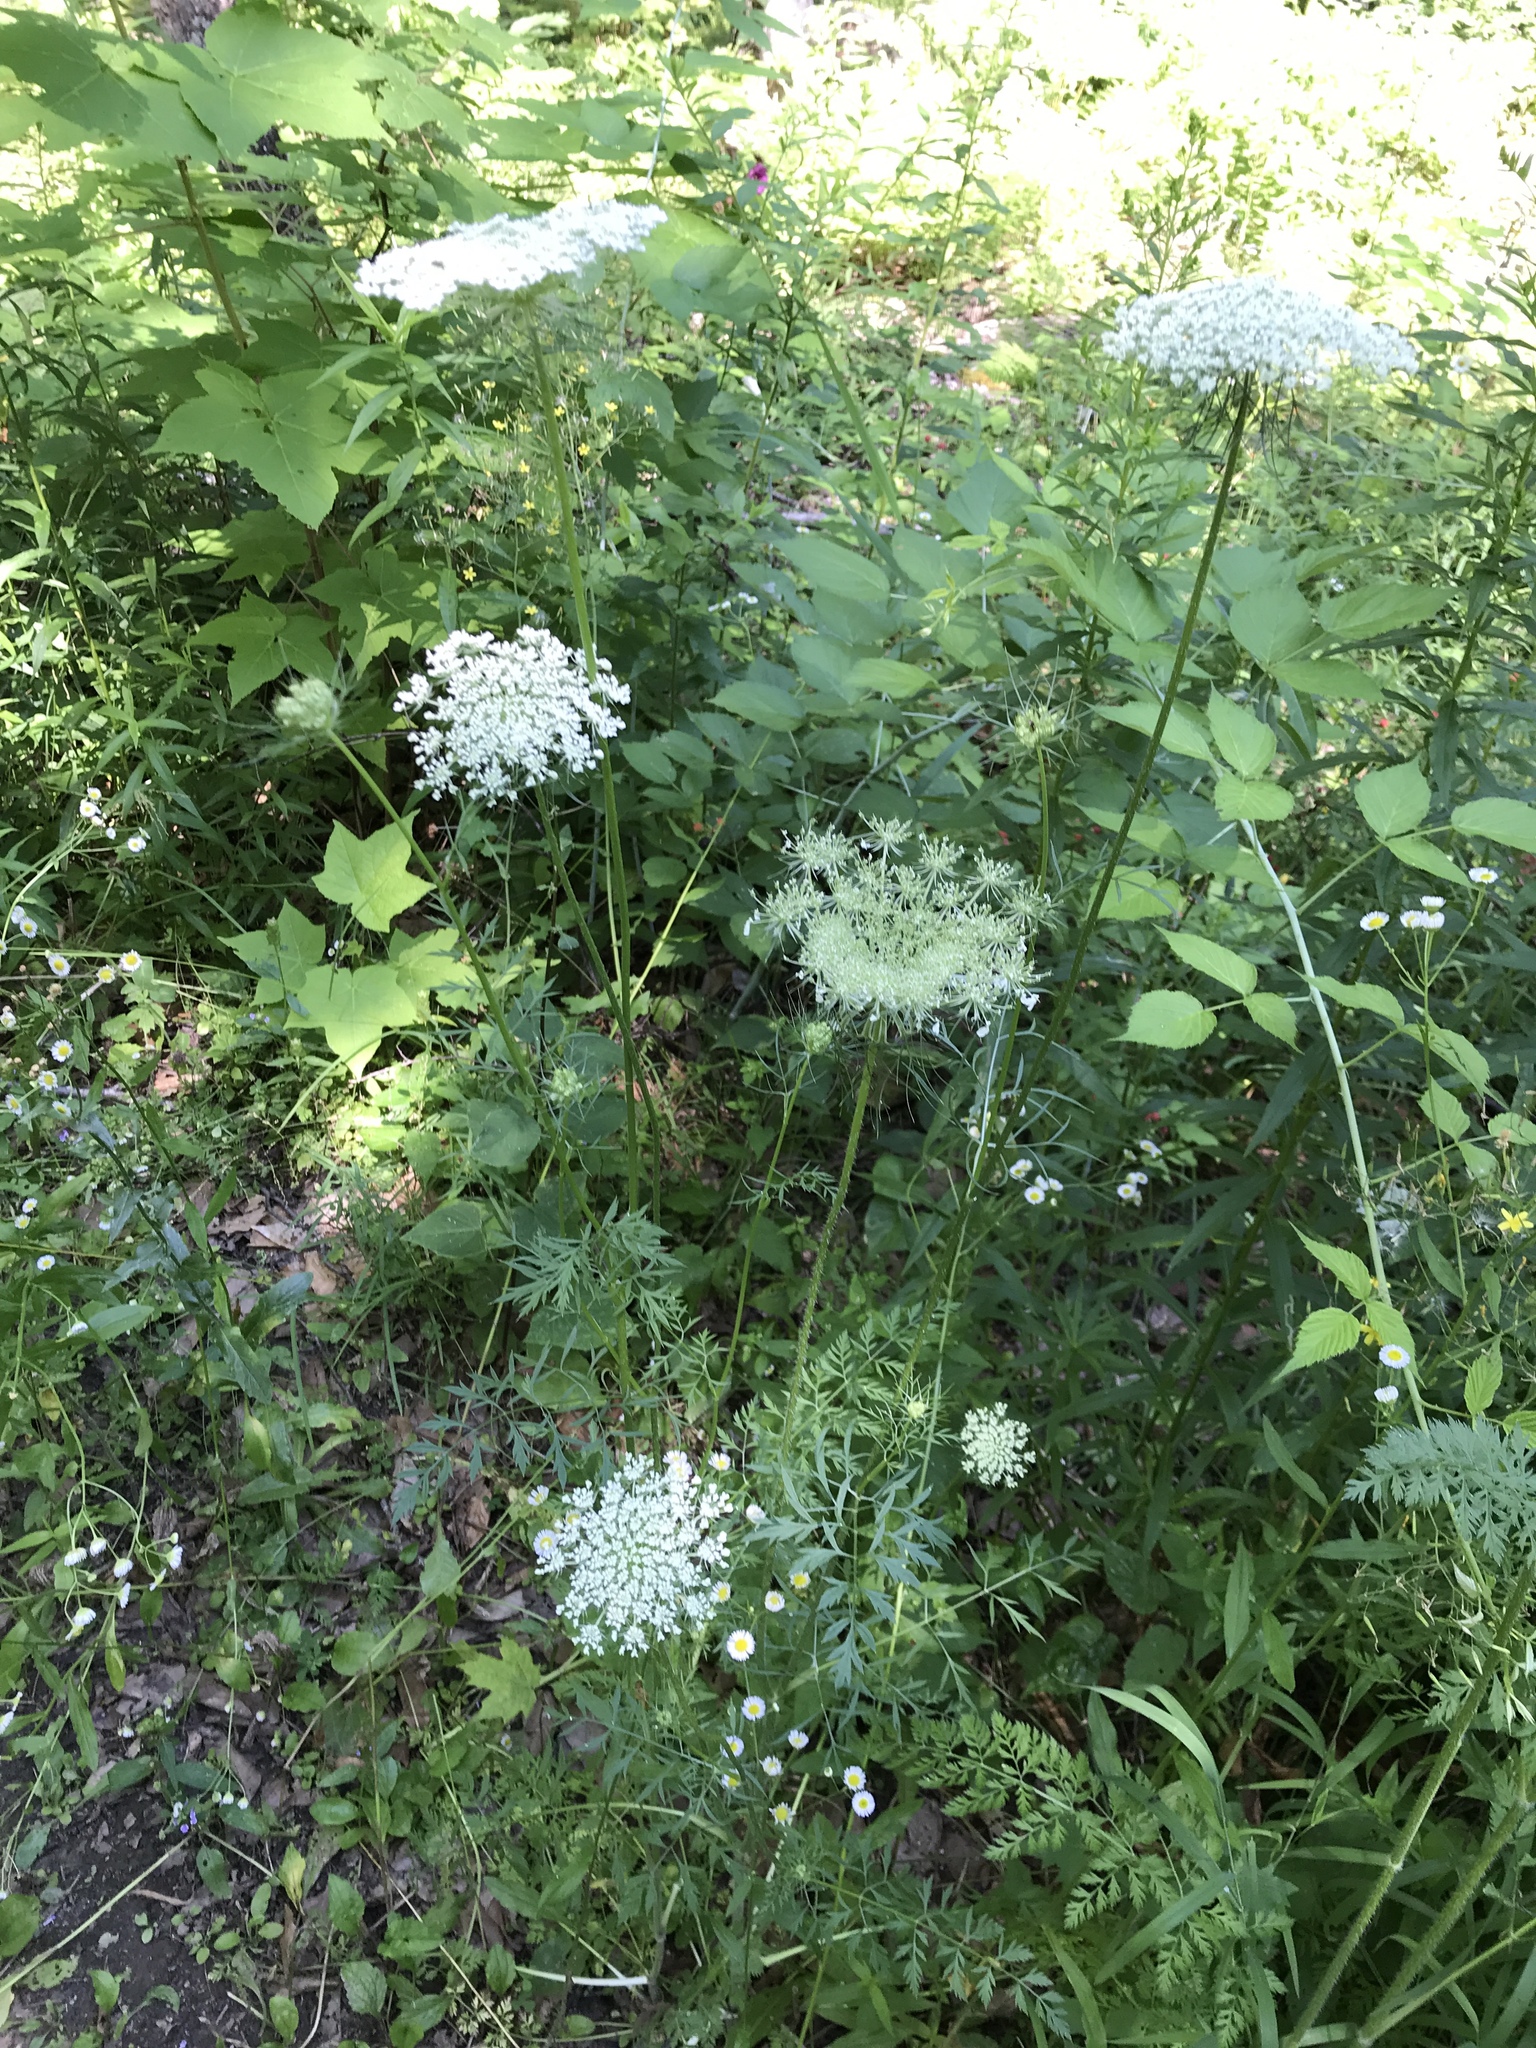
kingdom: Plantae
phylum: Tracheophyta
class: Magnoliopsida
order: Apiales
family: Apiaceae
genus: Daucus
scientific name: Daucus carota
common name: Wild carrot
